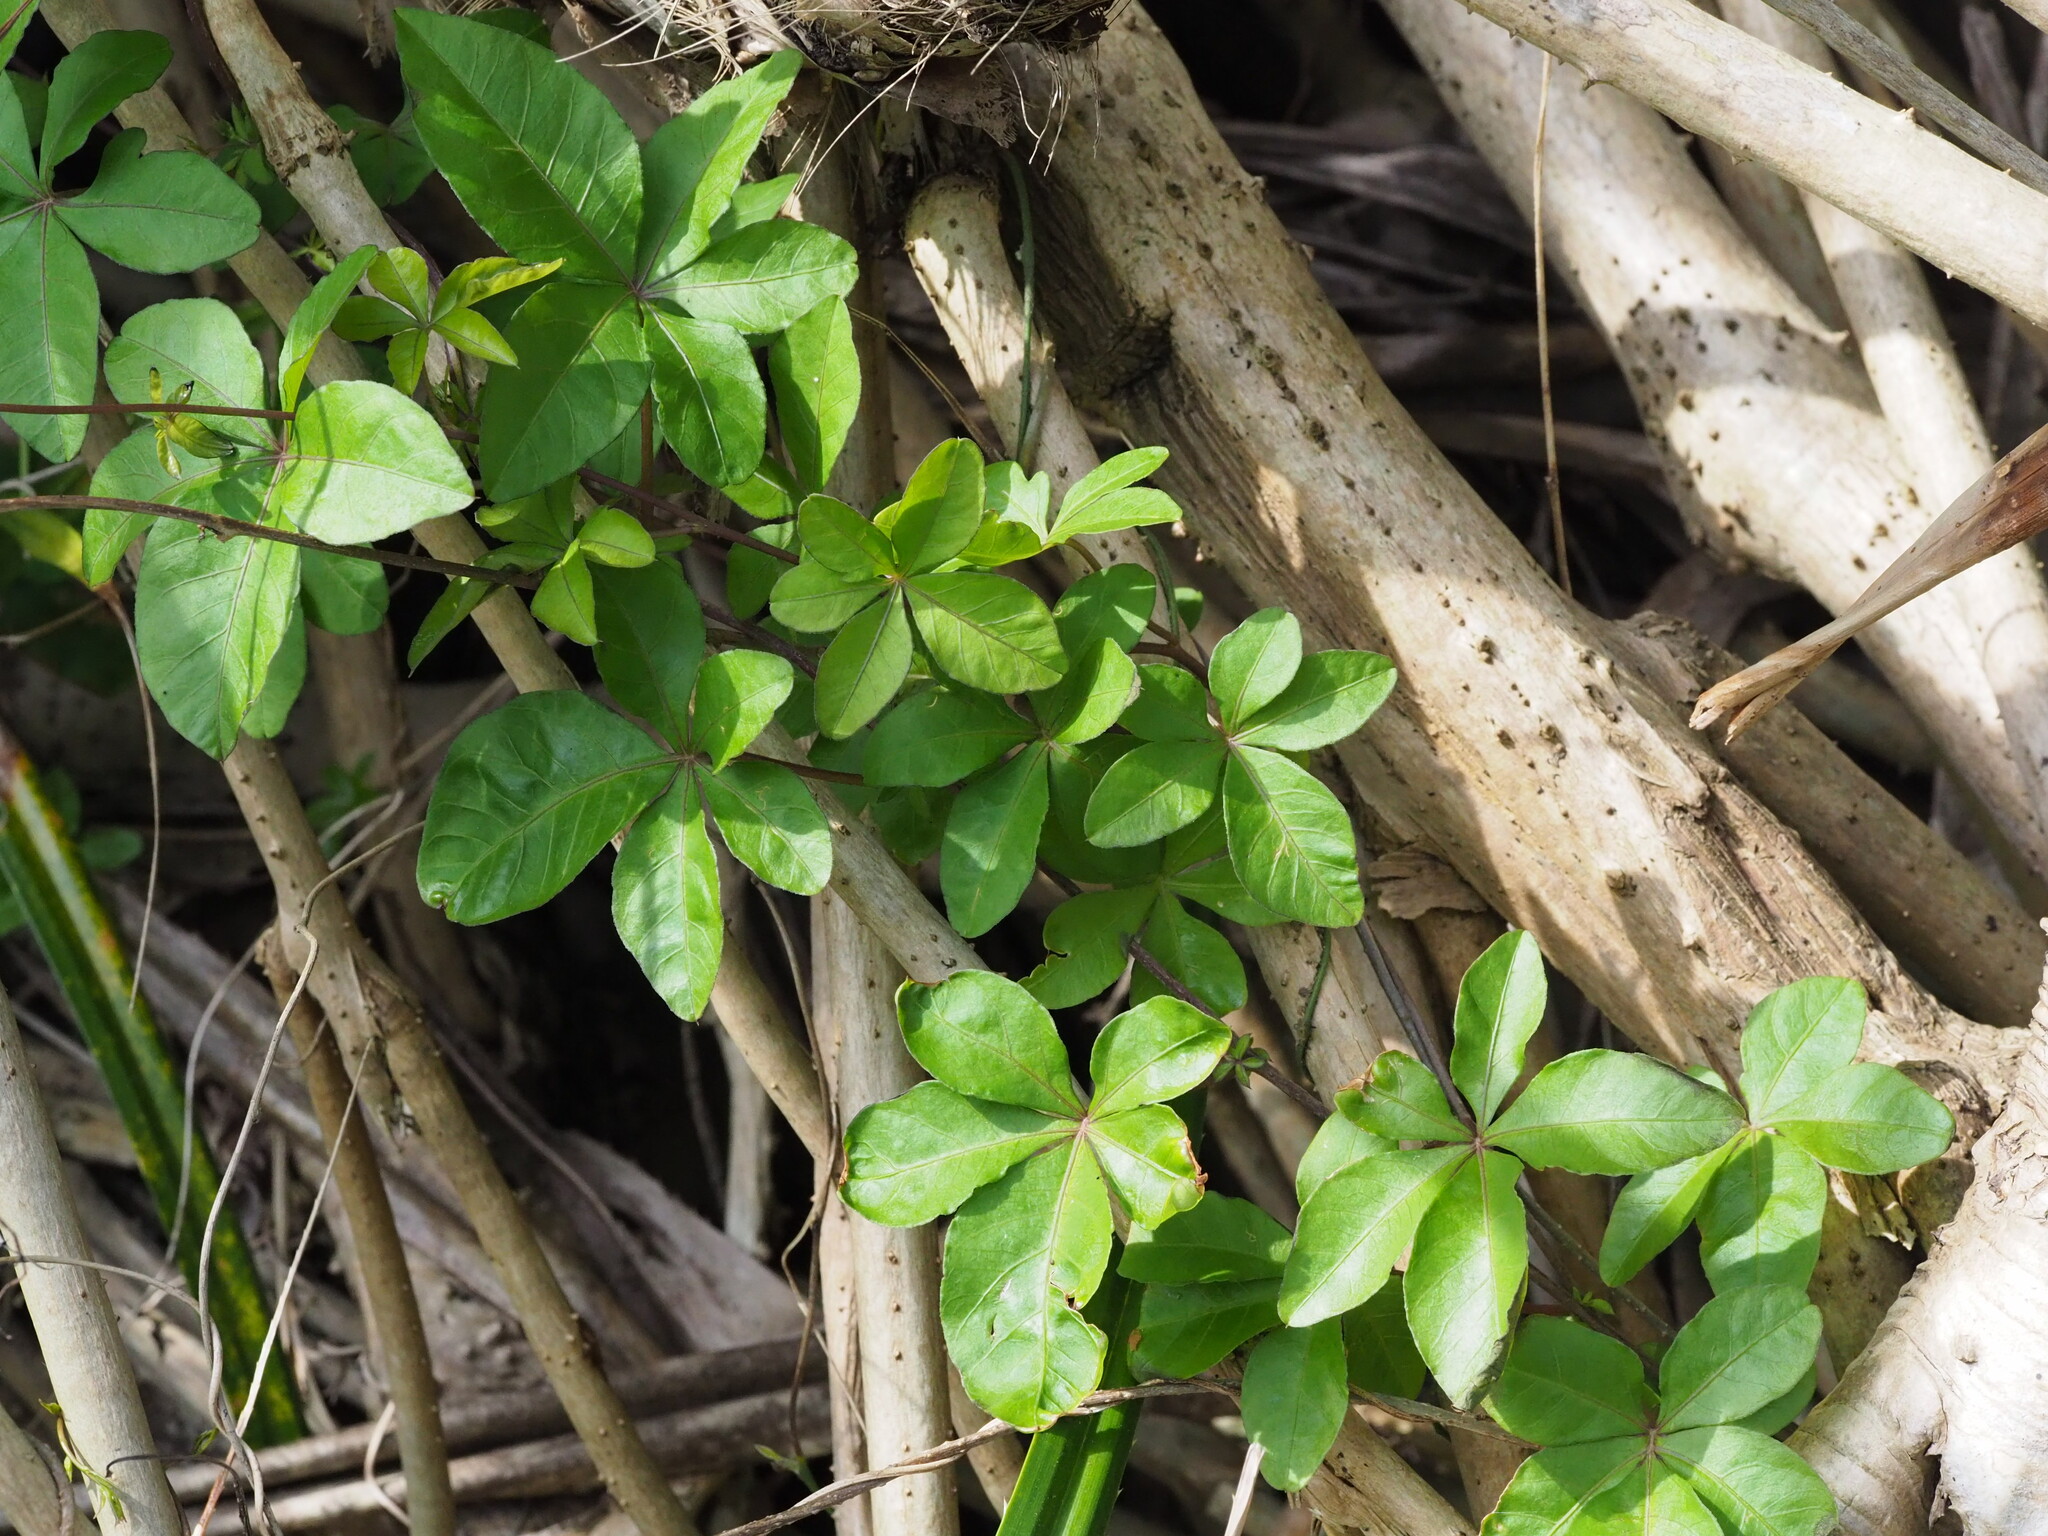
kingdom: Plantae
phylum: Tracheophyta
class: Magnoliopsida
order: Solanales
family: Convolvulaceae
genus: Ipomoea
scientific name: Ipomoea cairica
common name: Mile a minute vine
